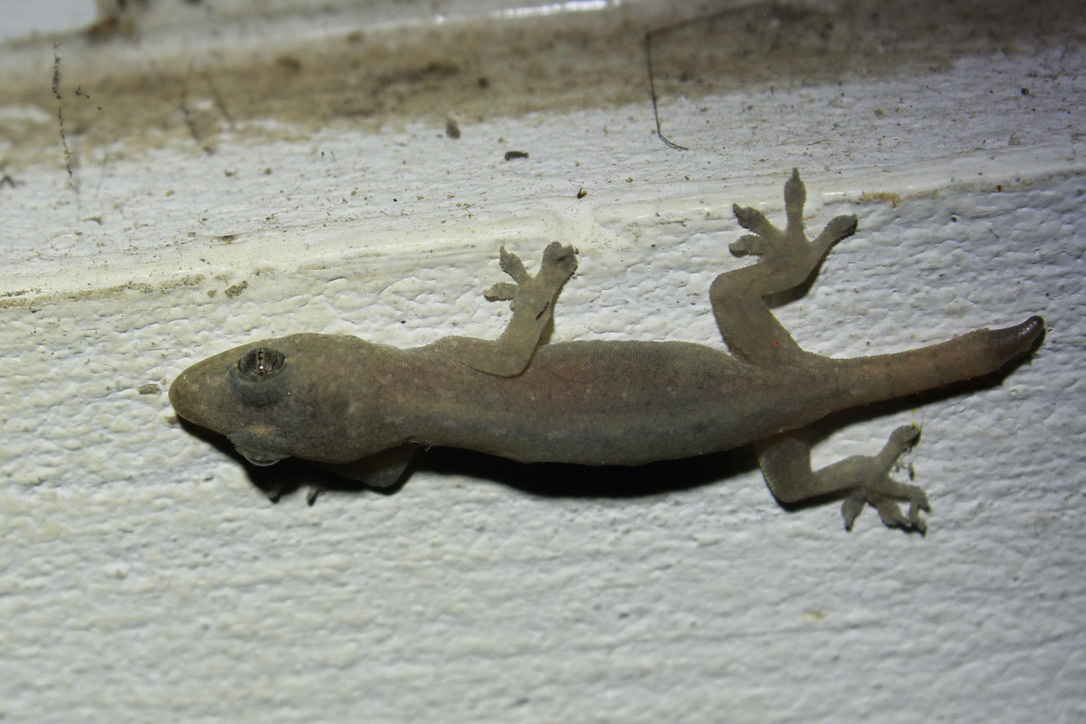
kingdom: Animalia
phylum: Chordata
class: Squamata
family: Gekkonidae
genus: Hemidactylus
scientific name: Hemidactylus frenatus
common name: Common house gecko
